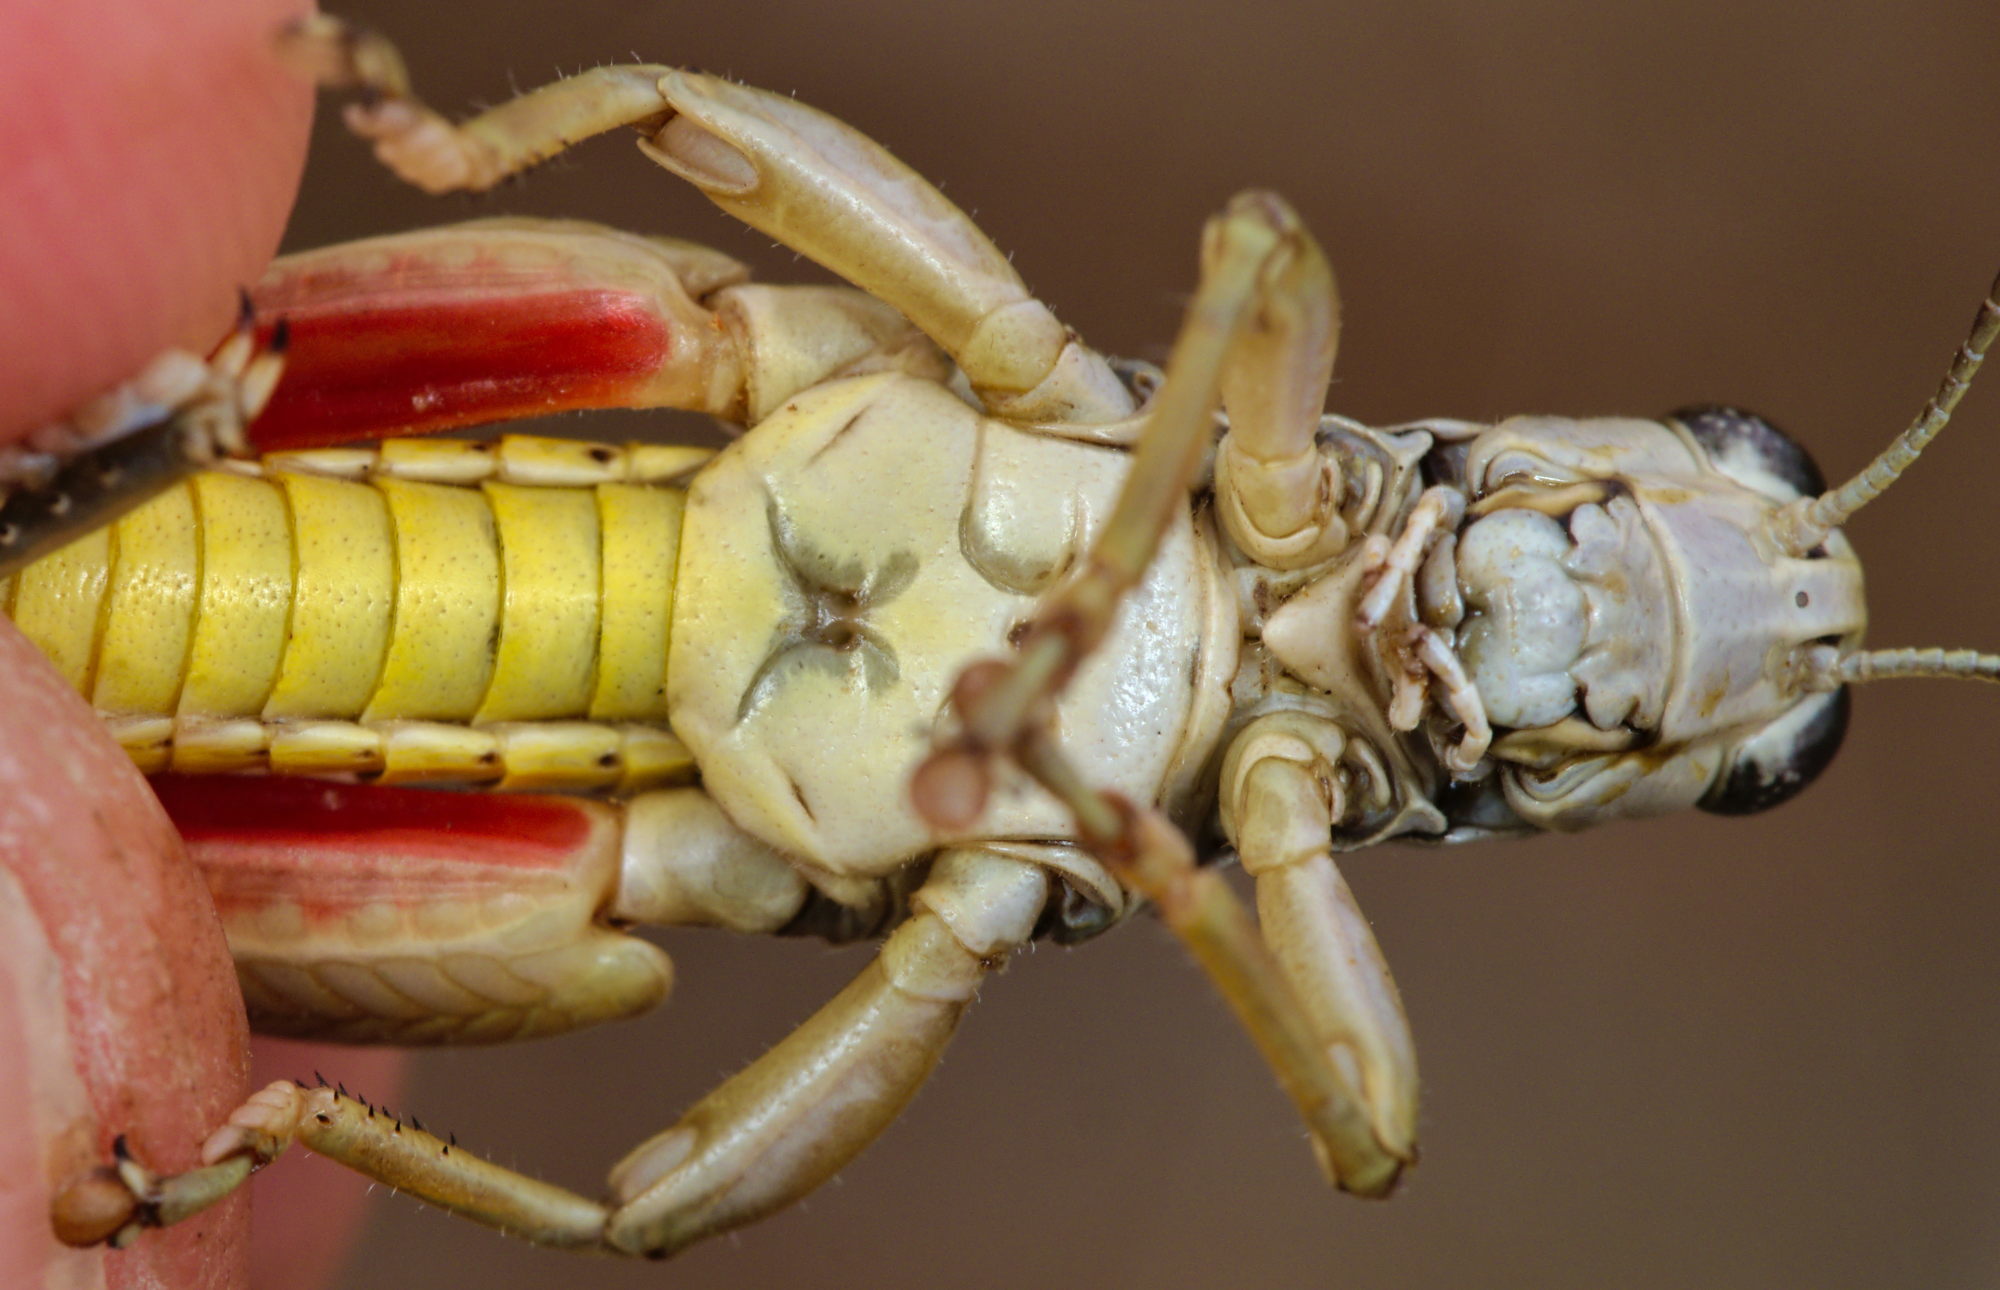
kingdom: Animalia
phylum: Arthropoda
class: Insecta
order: Orthoptera
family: Acrididae
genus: Podisma
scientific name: Podisma amedegnatoae
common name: Ventoux mountain grasshopper
